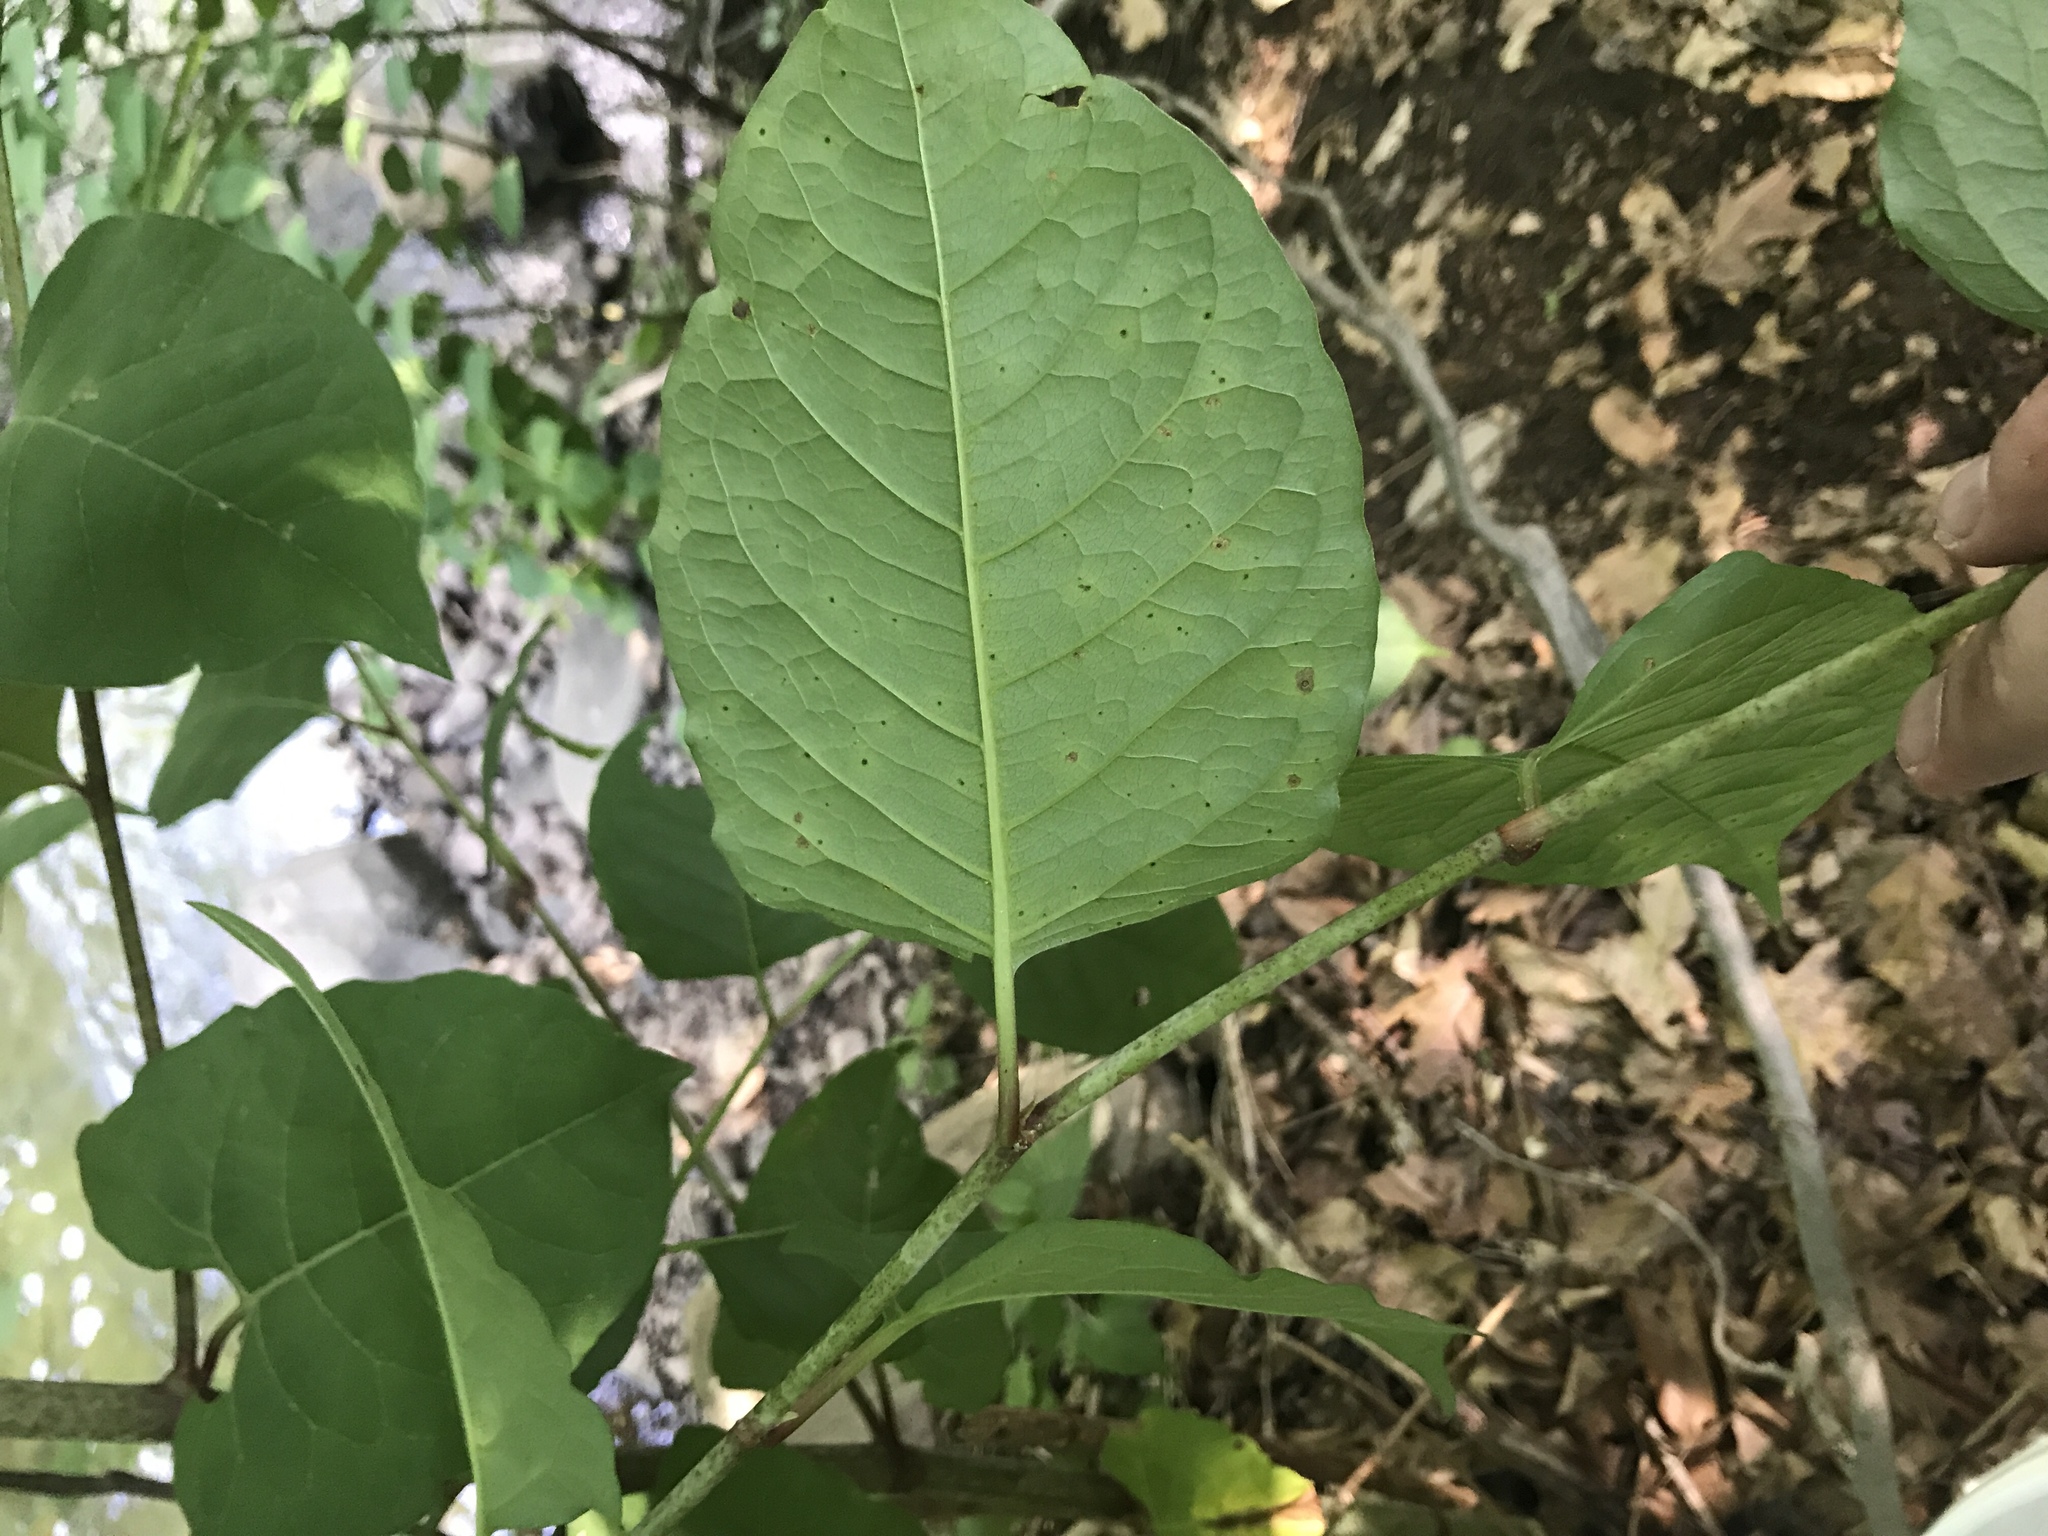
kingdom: Plantae
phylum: Tracheophyta
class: Magnoliopsida
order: Caryophyllales
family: Polygonaceae
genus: Reynoutria
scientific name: Reynoutria japonica
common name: Japanese knotweed
